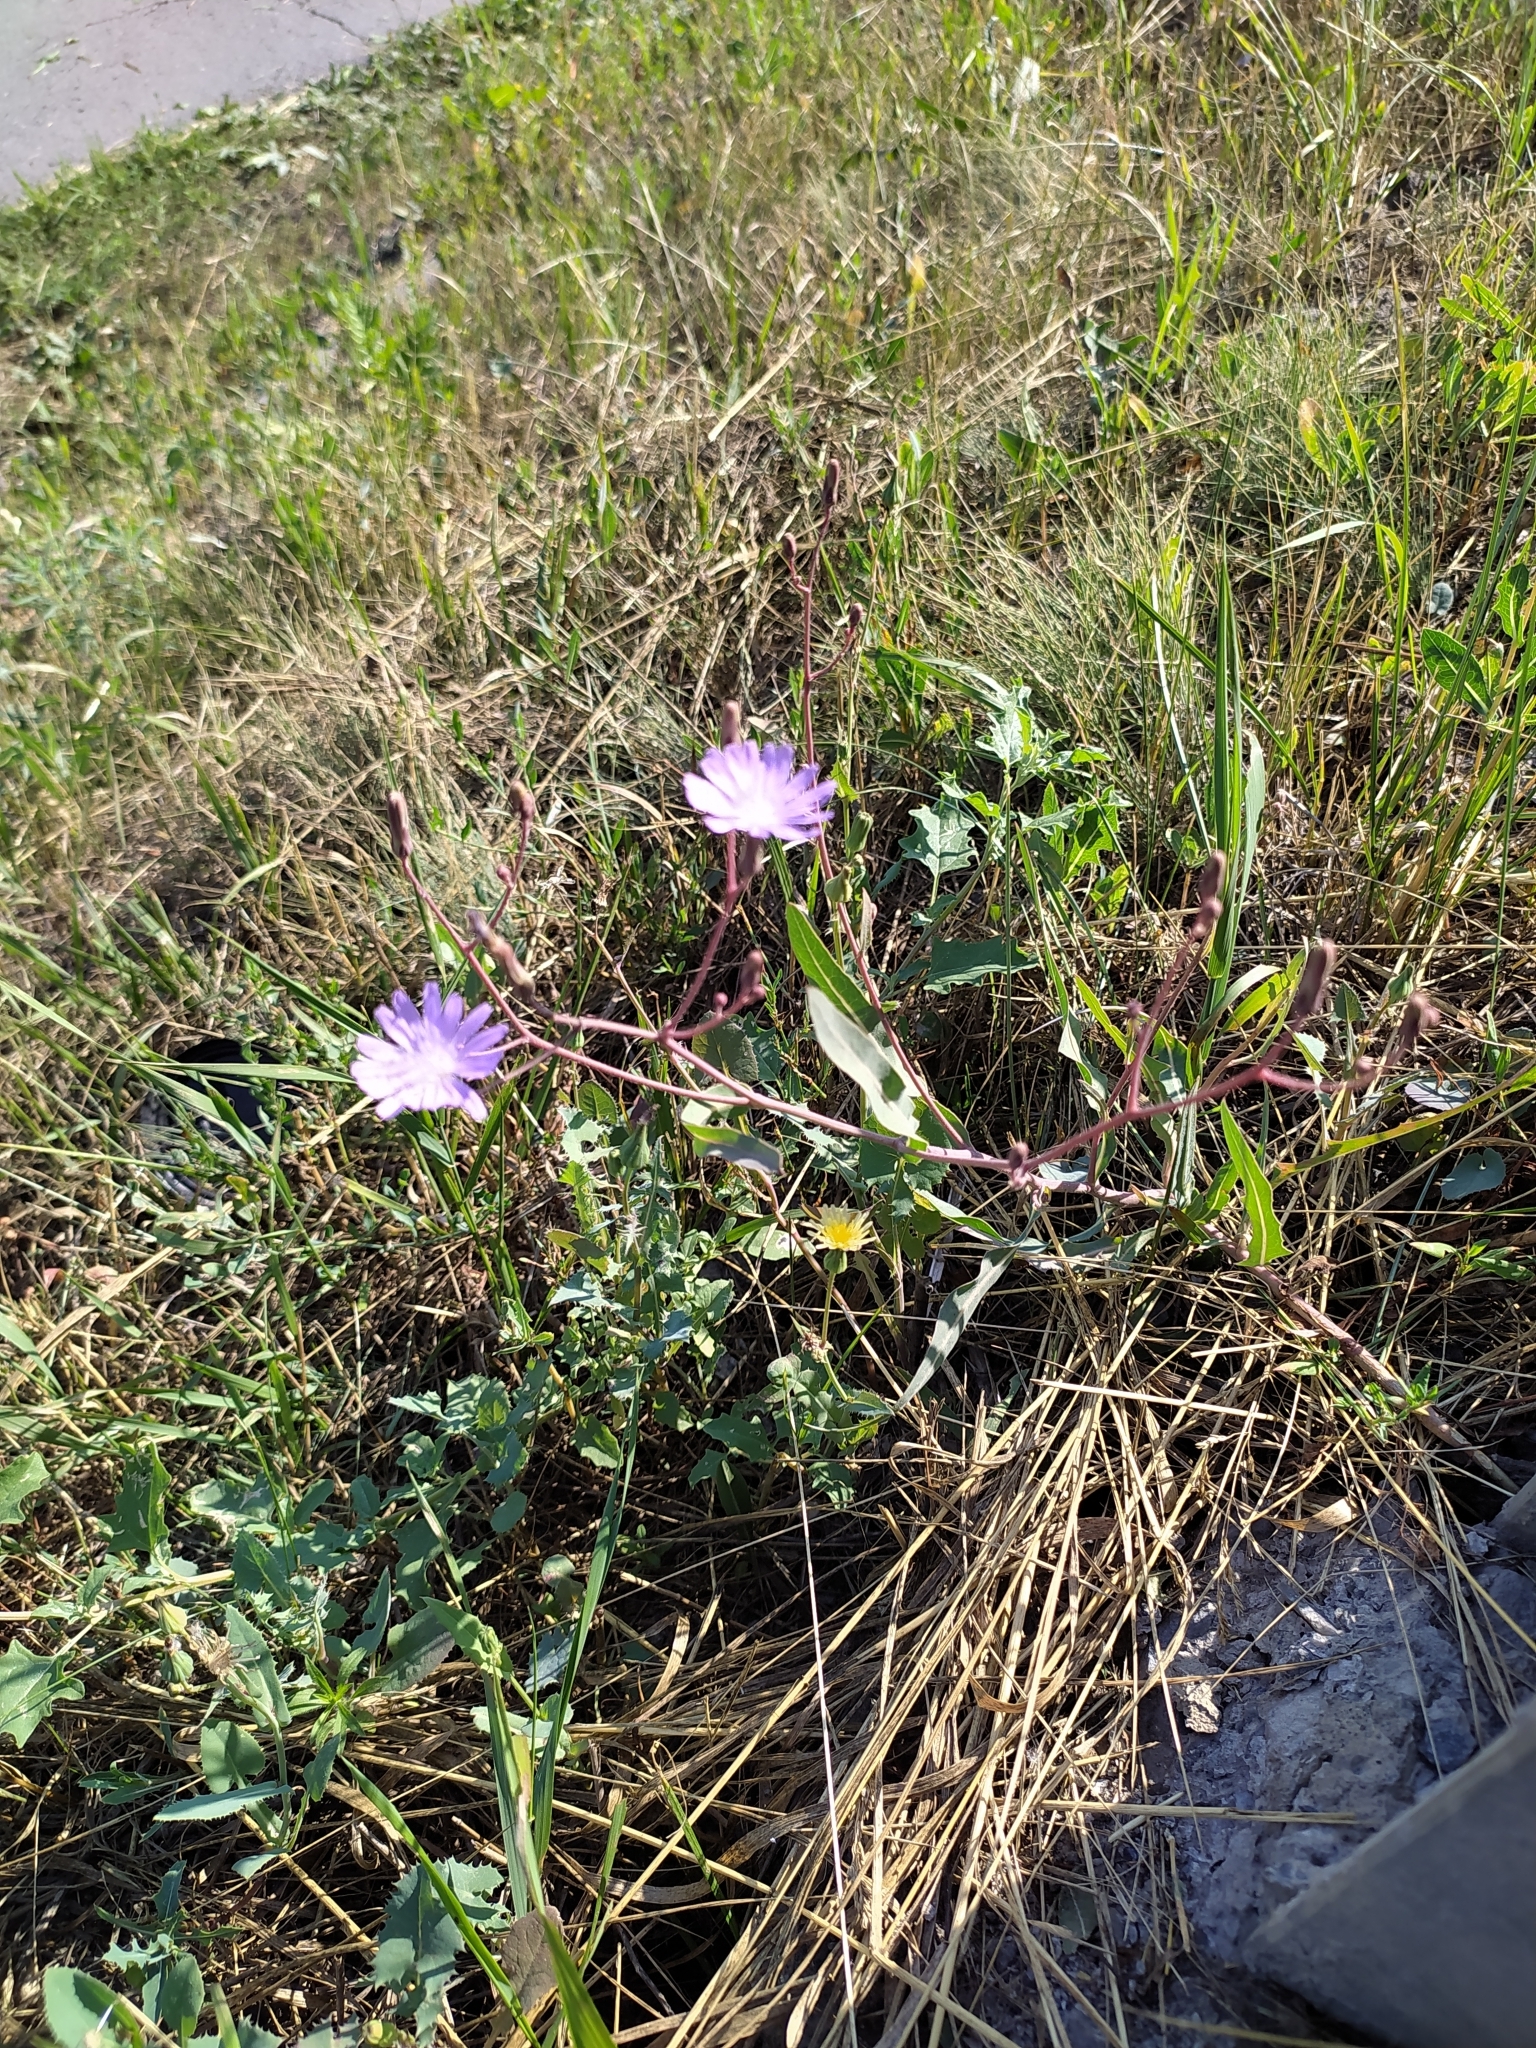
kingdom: Plantae
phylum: Tracheophyta
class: Magnoliopsida
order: Asterales
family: Asteraceae
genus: Lactuca
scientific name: Lactuca tatarica
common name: Blue lettuce
